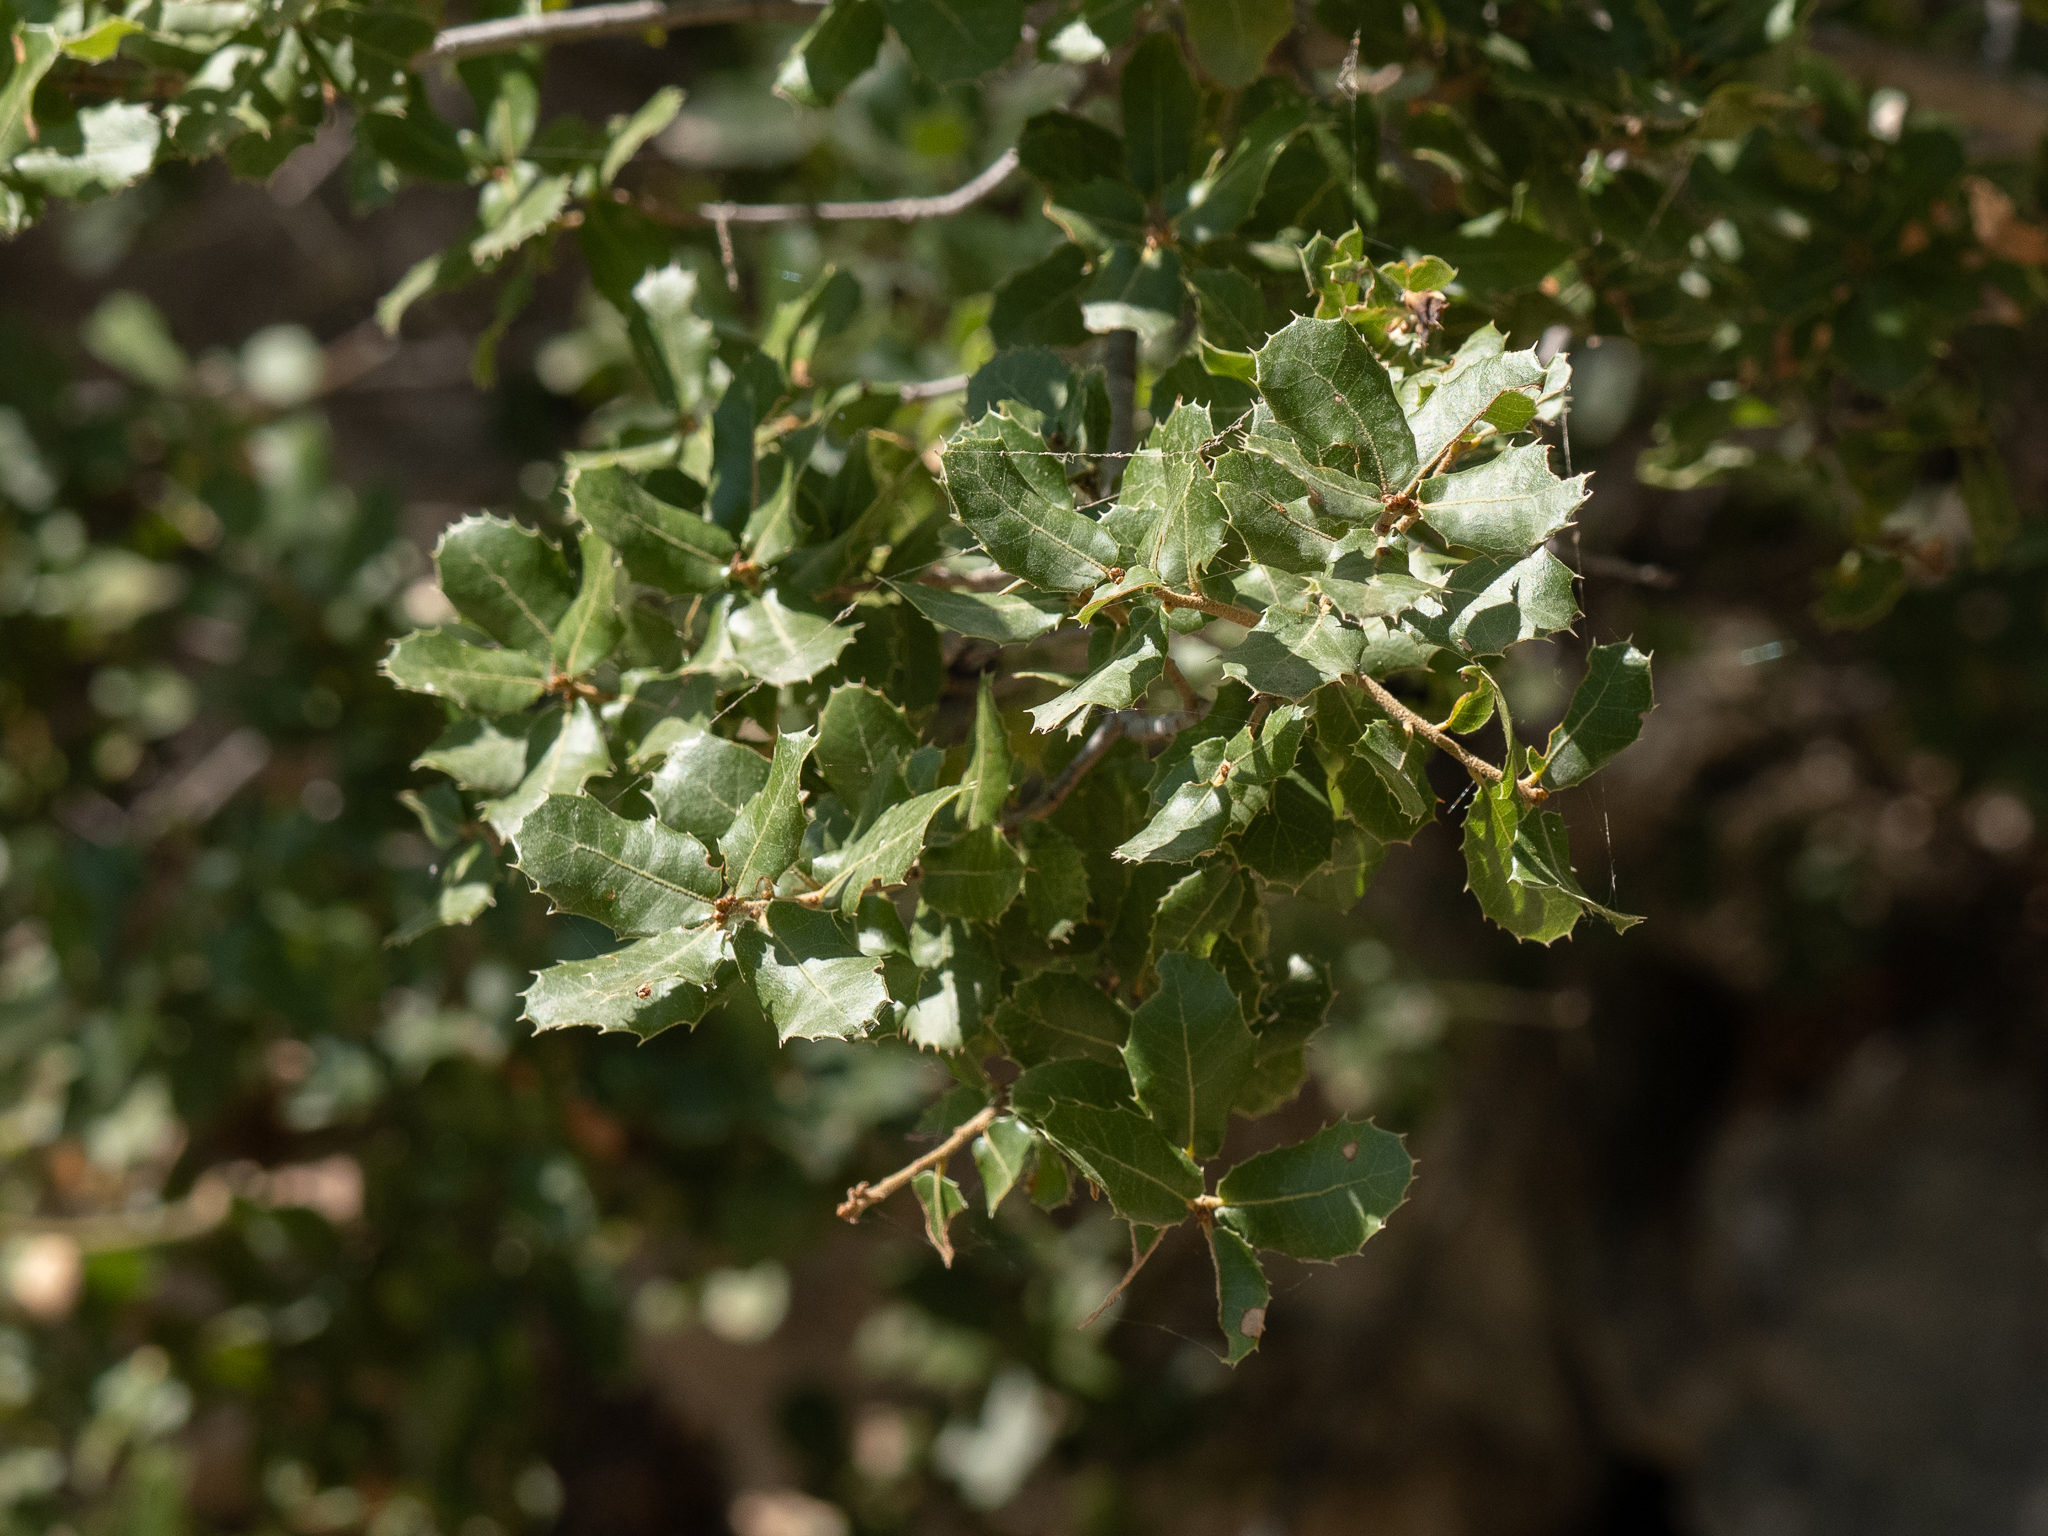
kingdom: Plantae
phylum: Tracheophyta
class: Magnoliopsida
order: Fagales
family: Fagaceae
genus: Quercus
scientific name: Quercus coccifera
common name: Kermes oak
